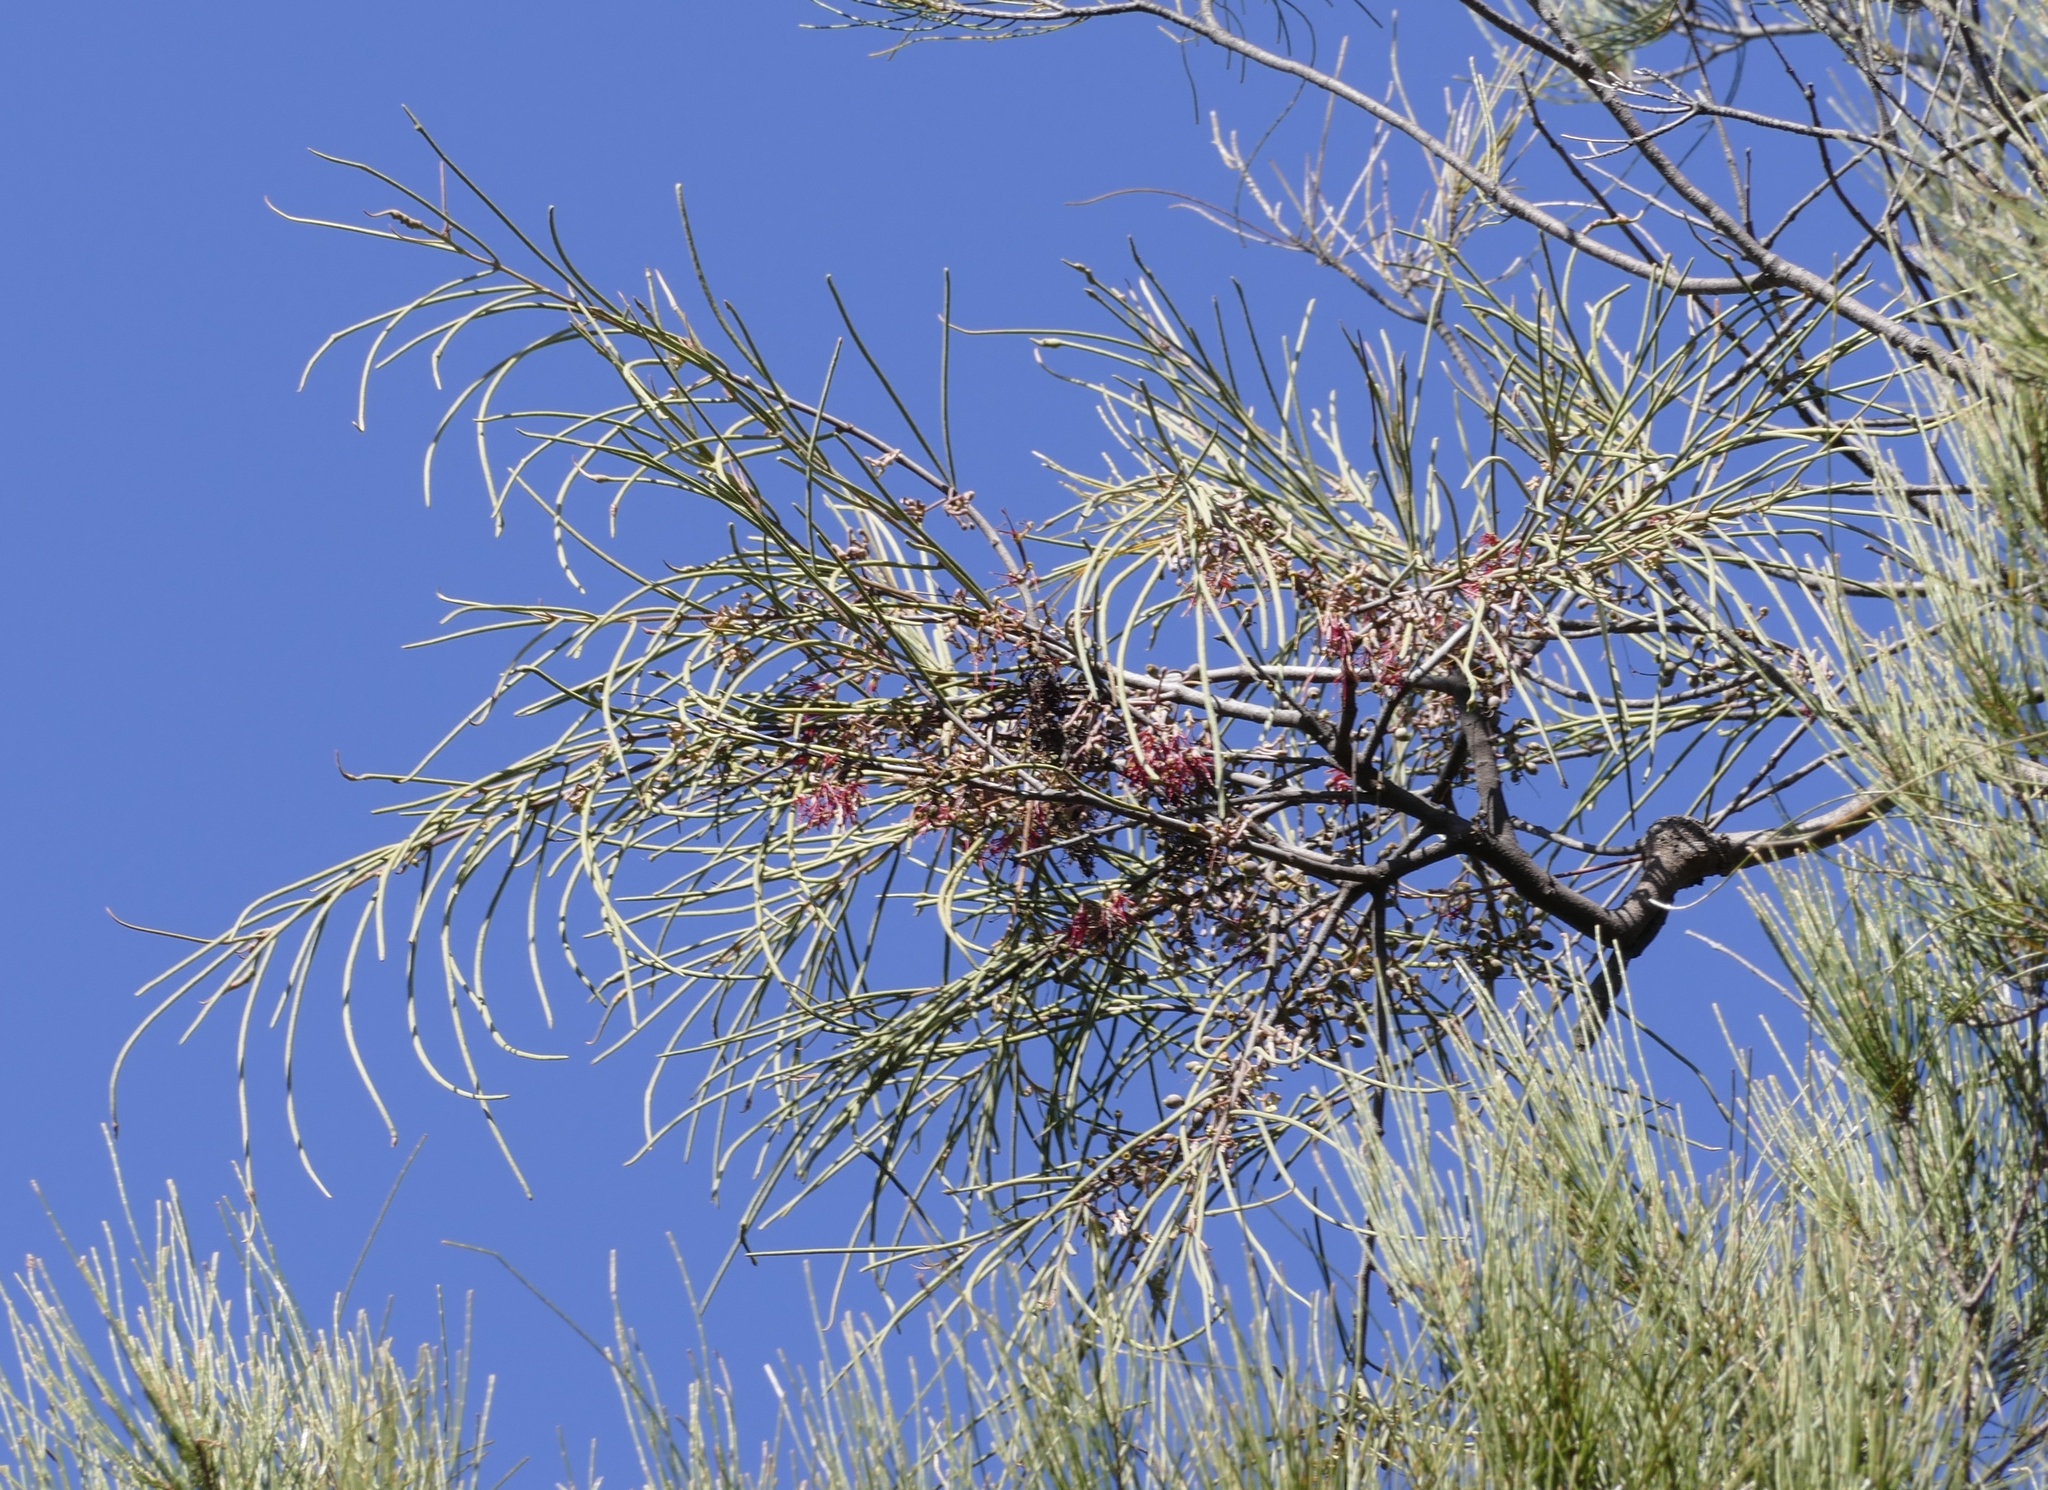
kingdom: Plantae
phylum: Tracheophyta
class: Magnoliopsida
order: Santalales
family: Loranthaceae
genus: Amyema
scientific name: Amyema cambagei
